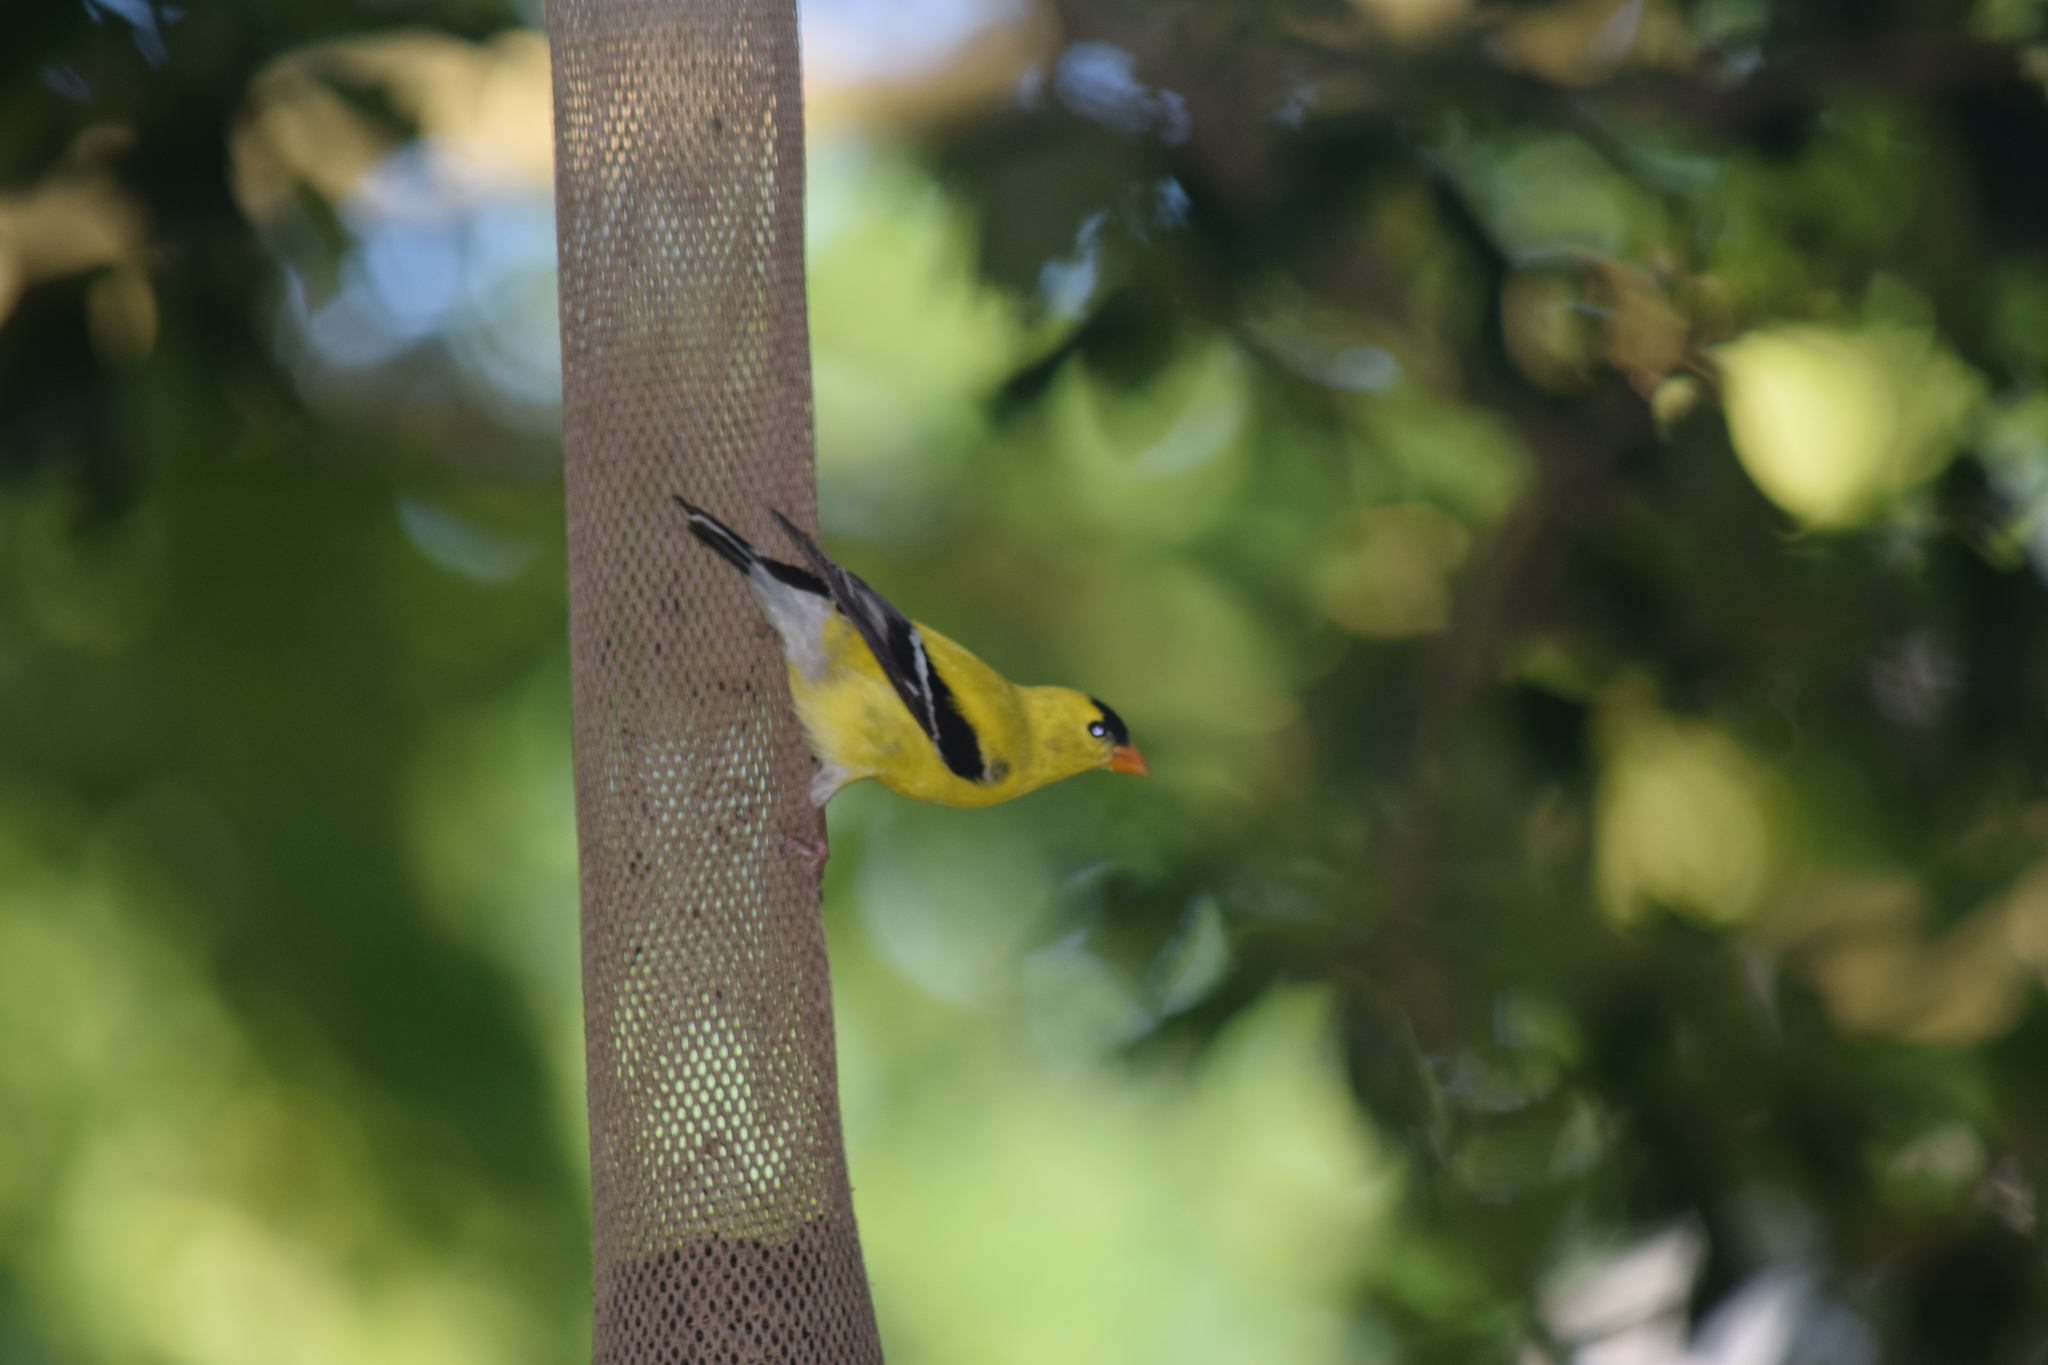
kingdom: Animalia
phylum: Chordata
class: Aves
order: Passeriformes
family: Fringillidae
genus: Spinus
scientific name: Spinus tristis
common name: American goldfinch
